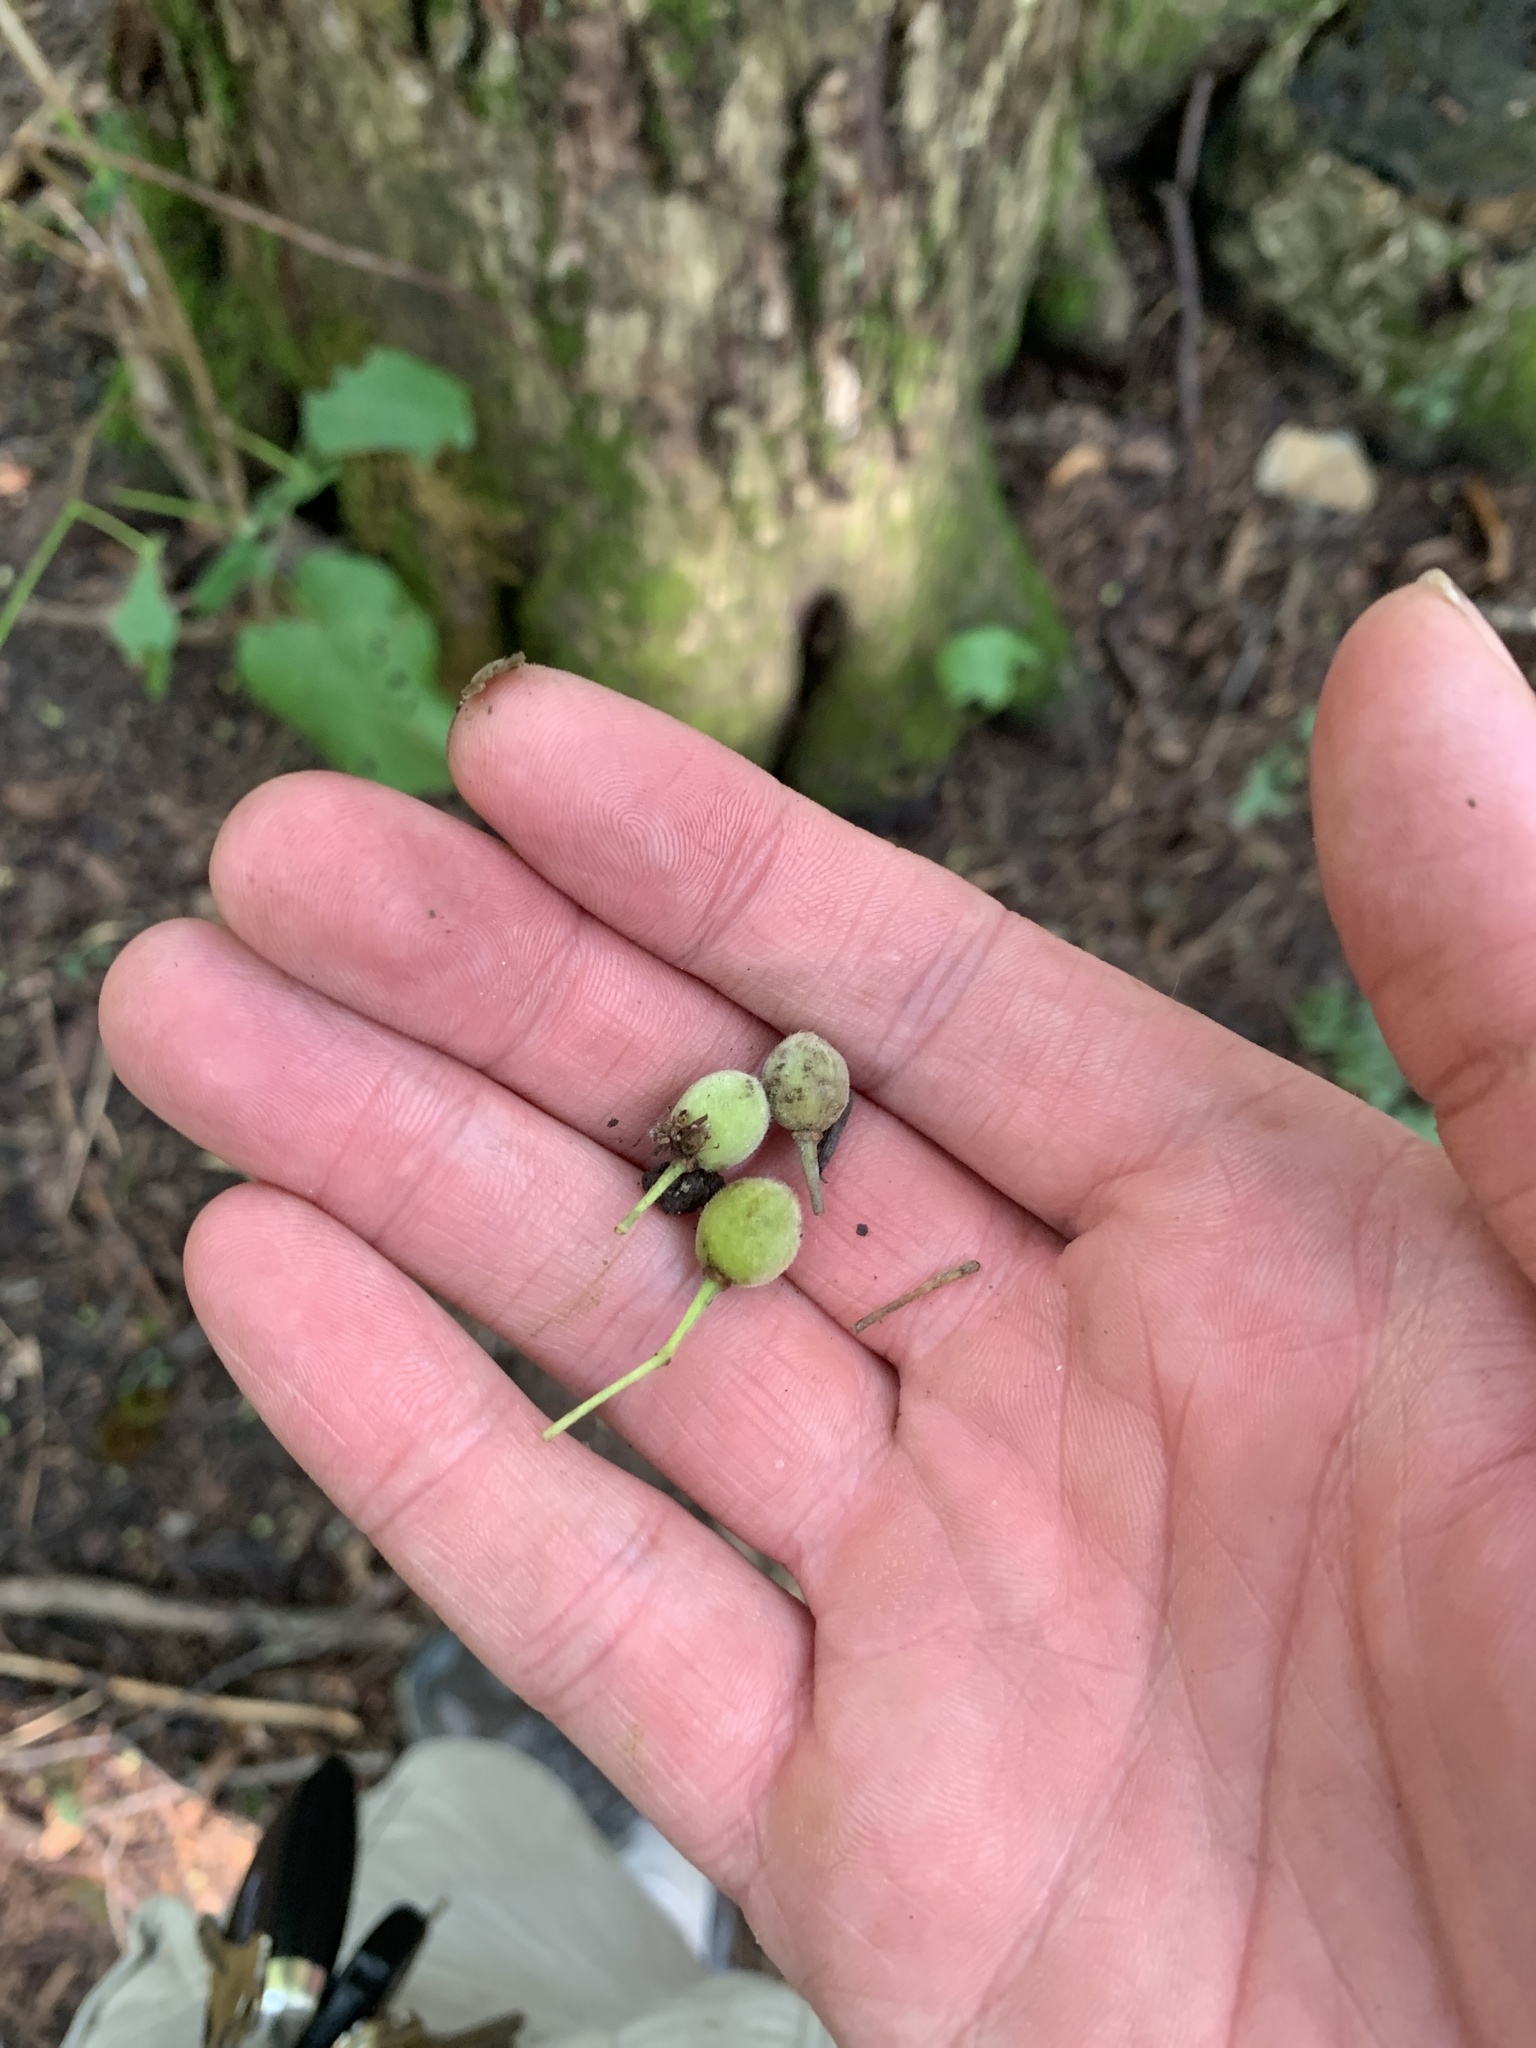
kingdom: Plantae
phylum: Tracheophyta
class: Magnoliopsida
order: Malvales
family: Malvaceae
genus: Tilia
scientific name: Tilia americana
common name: Basswood
